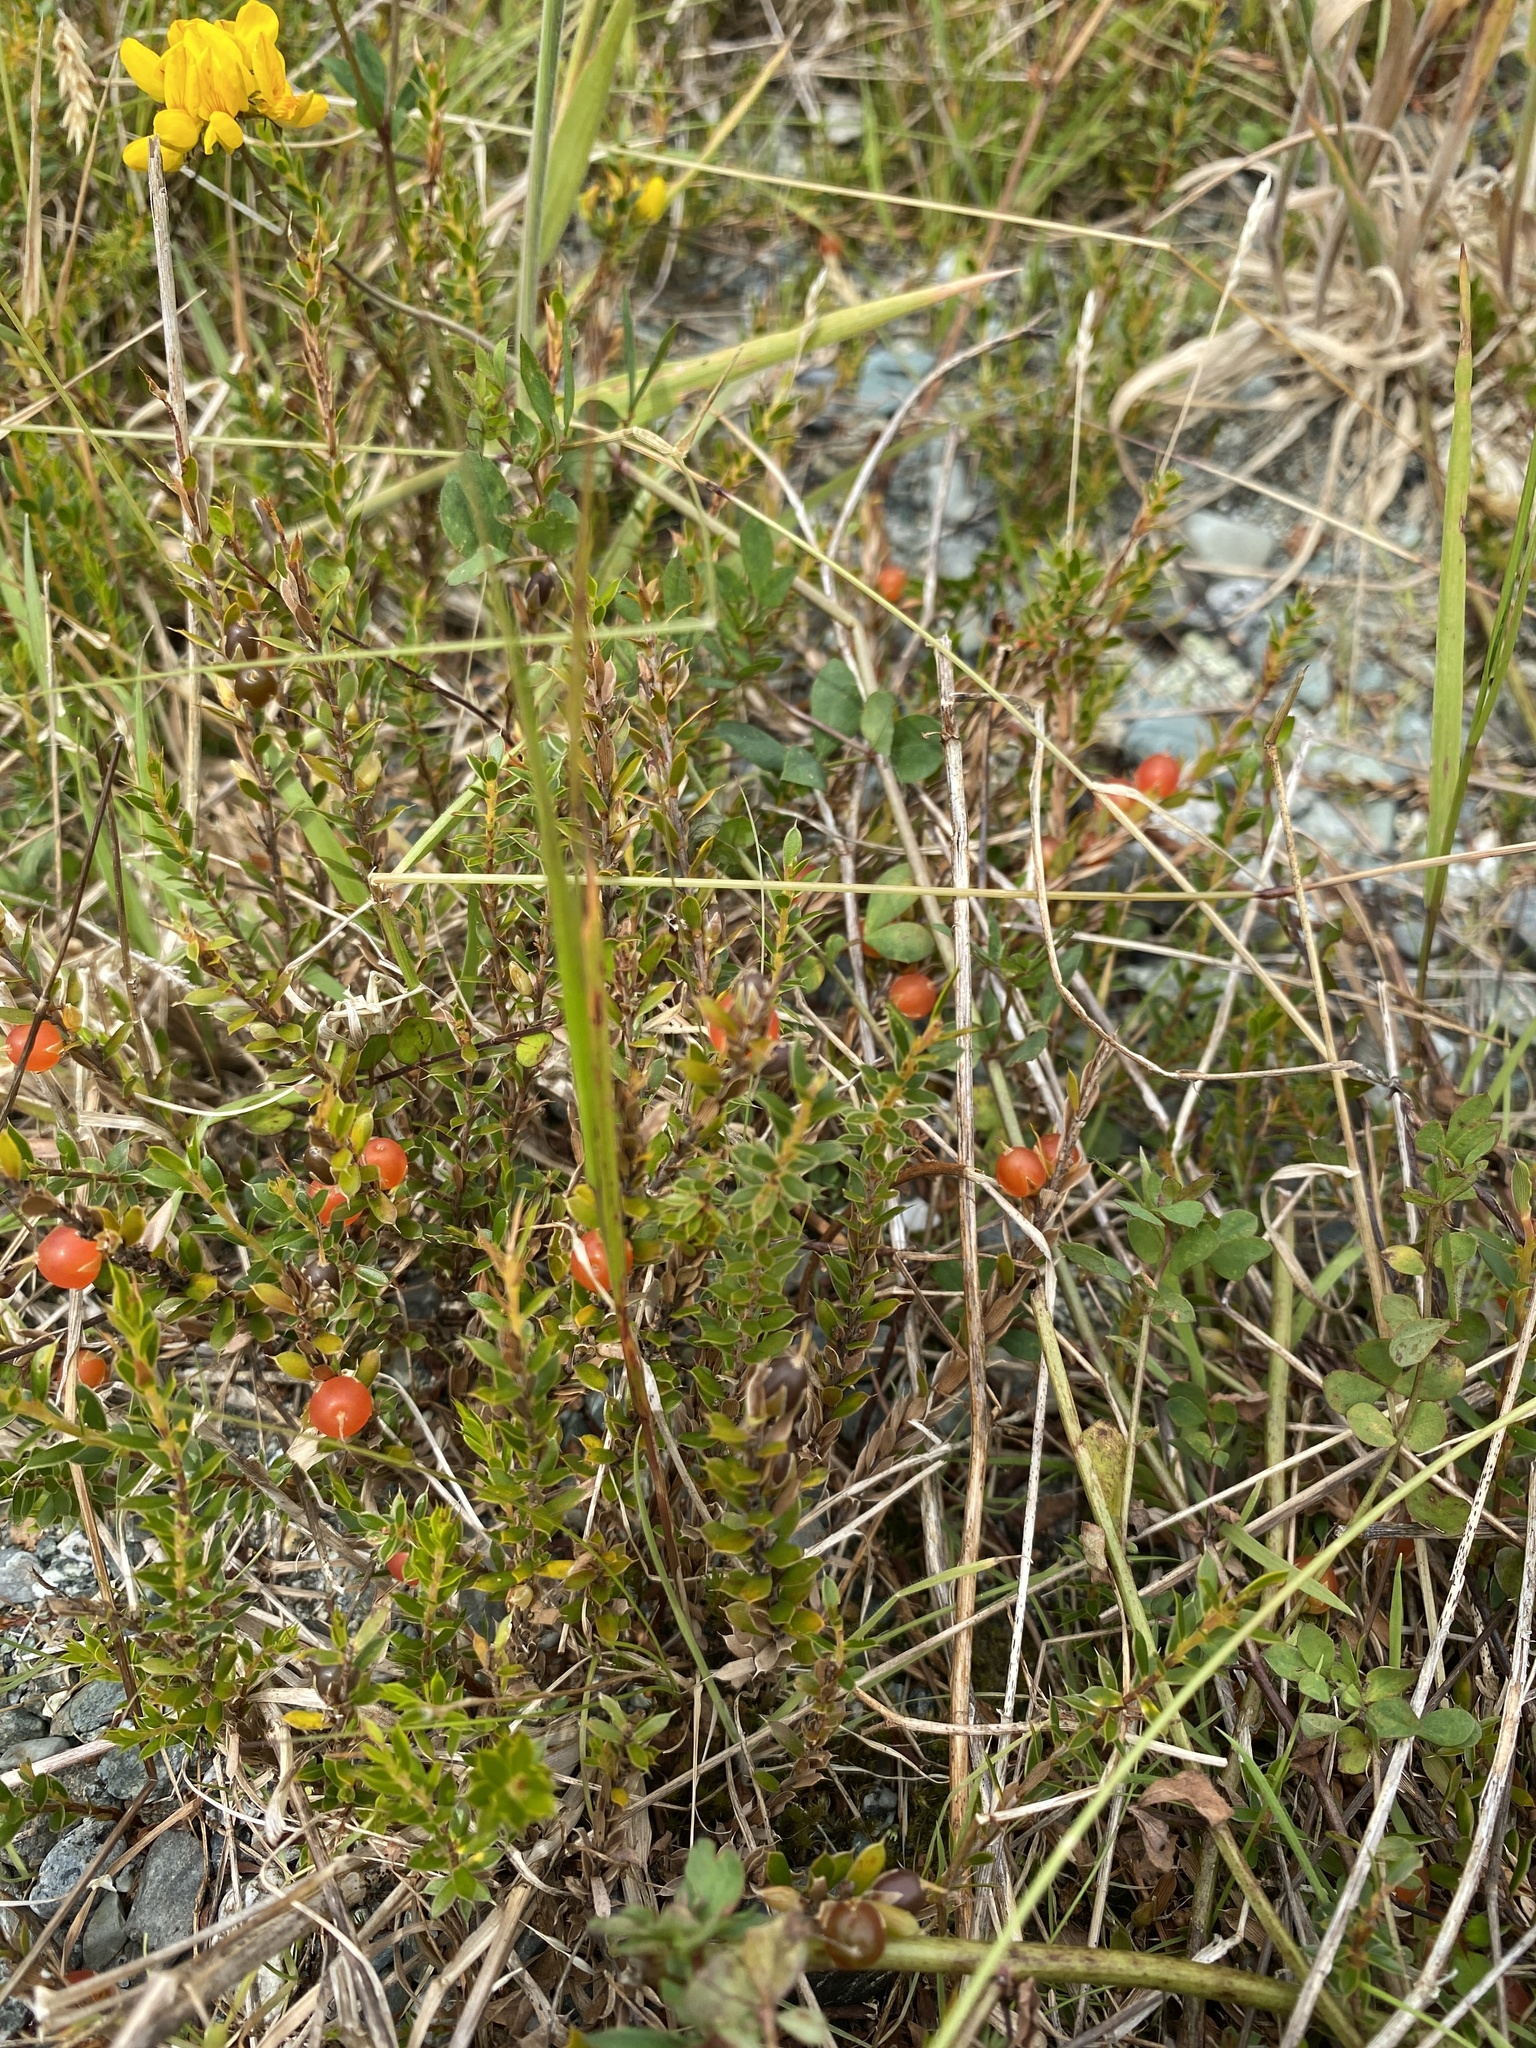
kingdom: Plantae
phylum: Tracheophyta
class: Magnoliopsida
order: Ericales
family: Ericaceae
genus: Styphelia
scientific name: Styphelia nesophila
